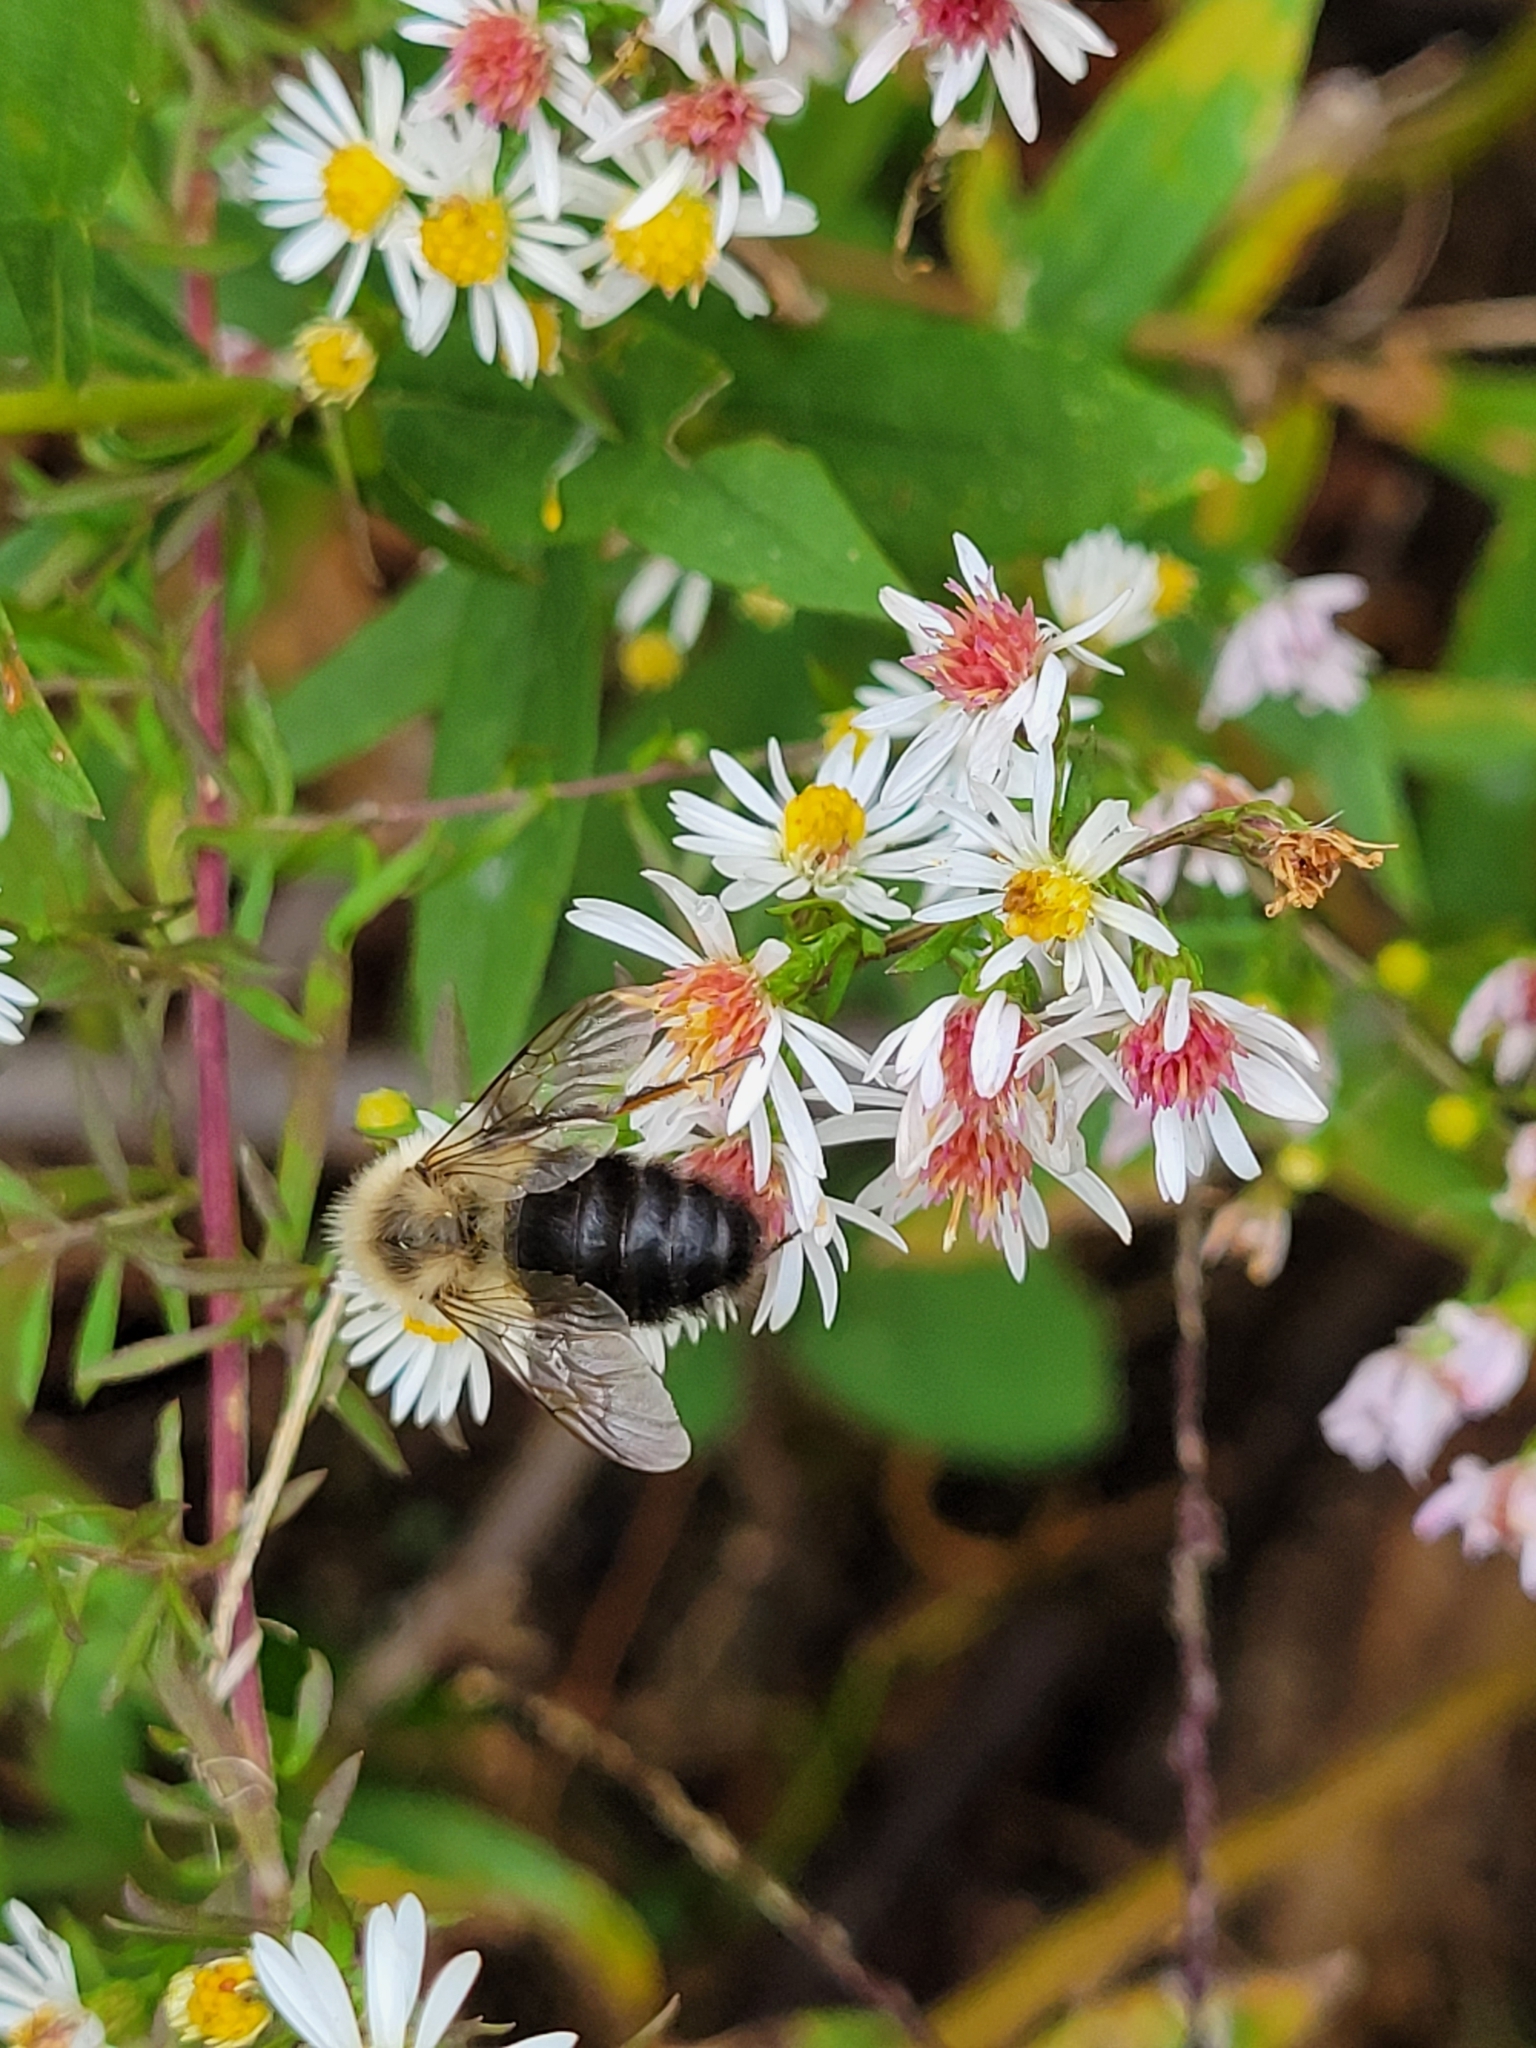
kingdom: Animalia
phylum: Arthropoda
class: Insecta
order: Hymenoptera
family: Apidae
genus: Bombus
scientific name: Bombus impatiens
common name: Common eastern bumble bee
